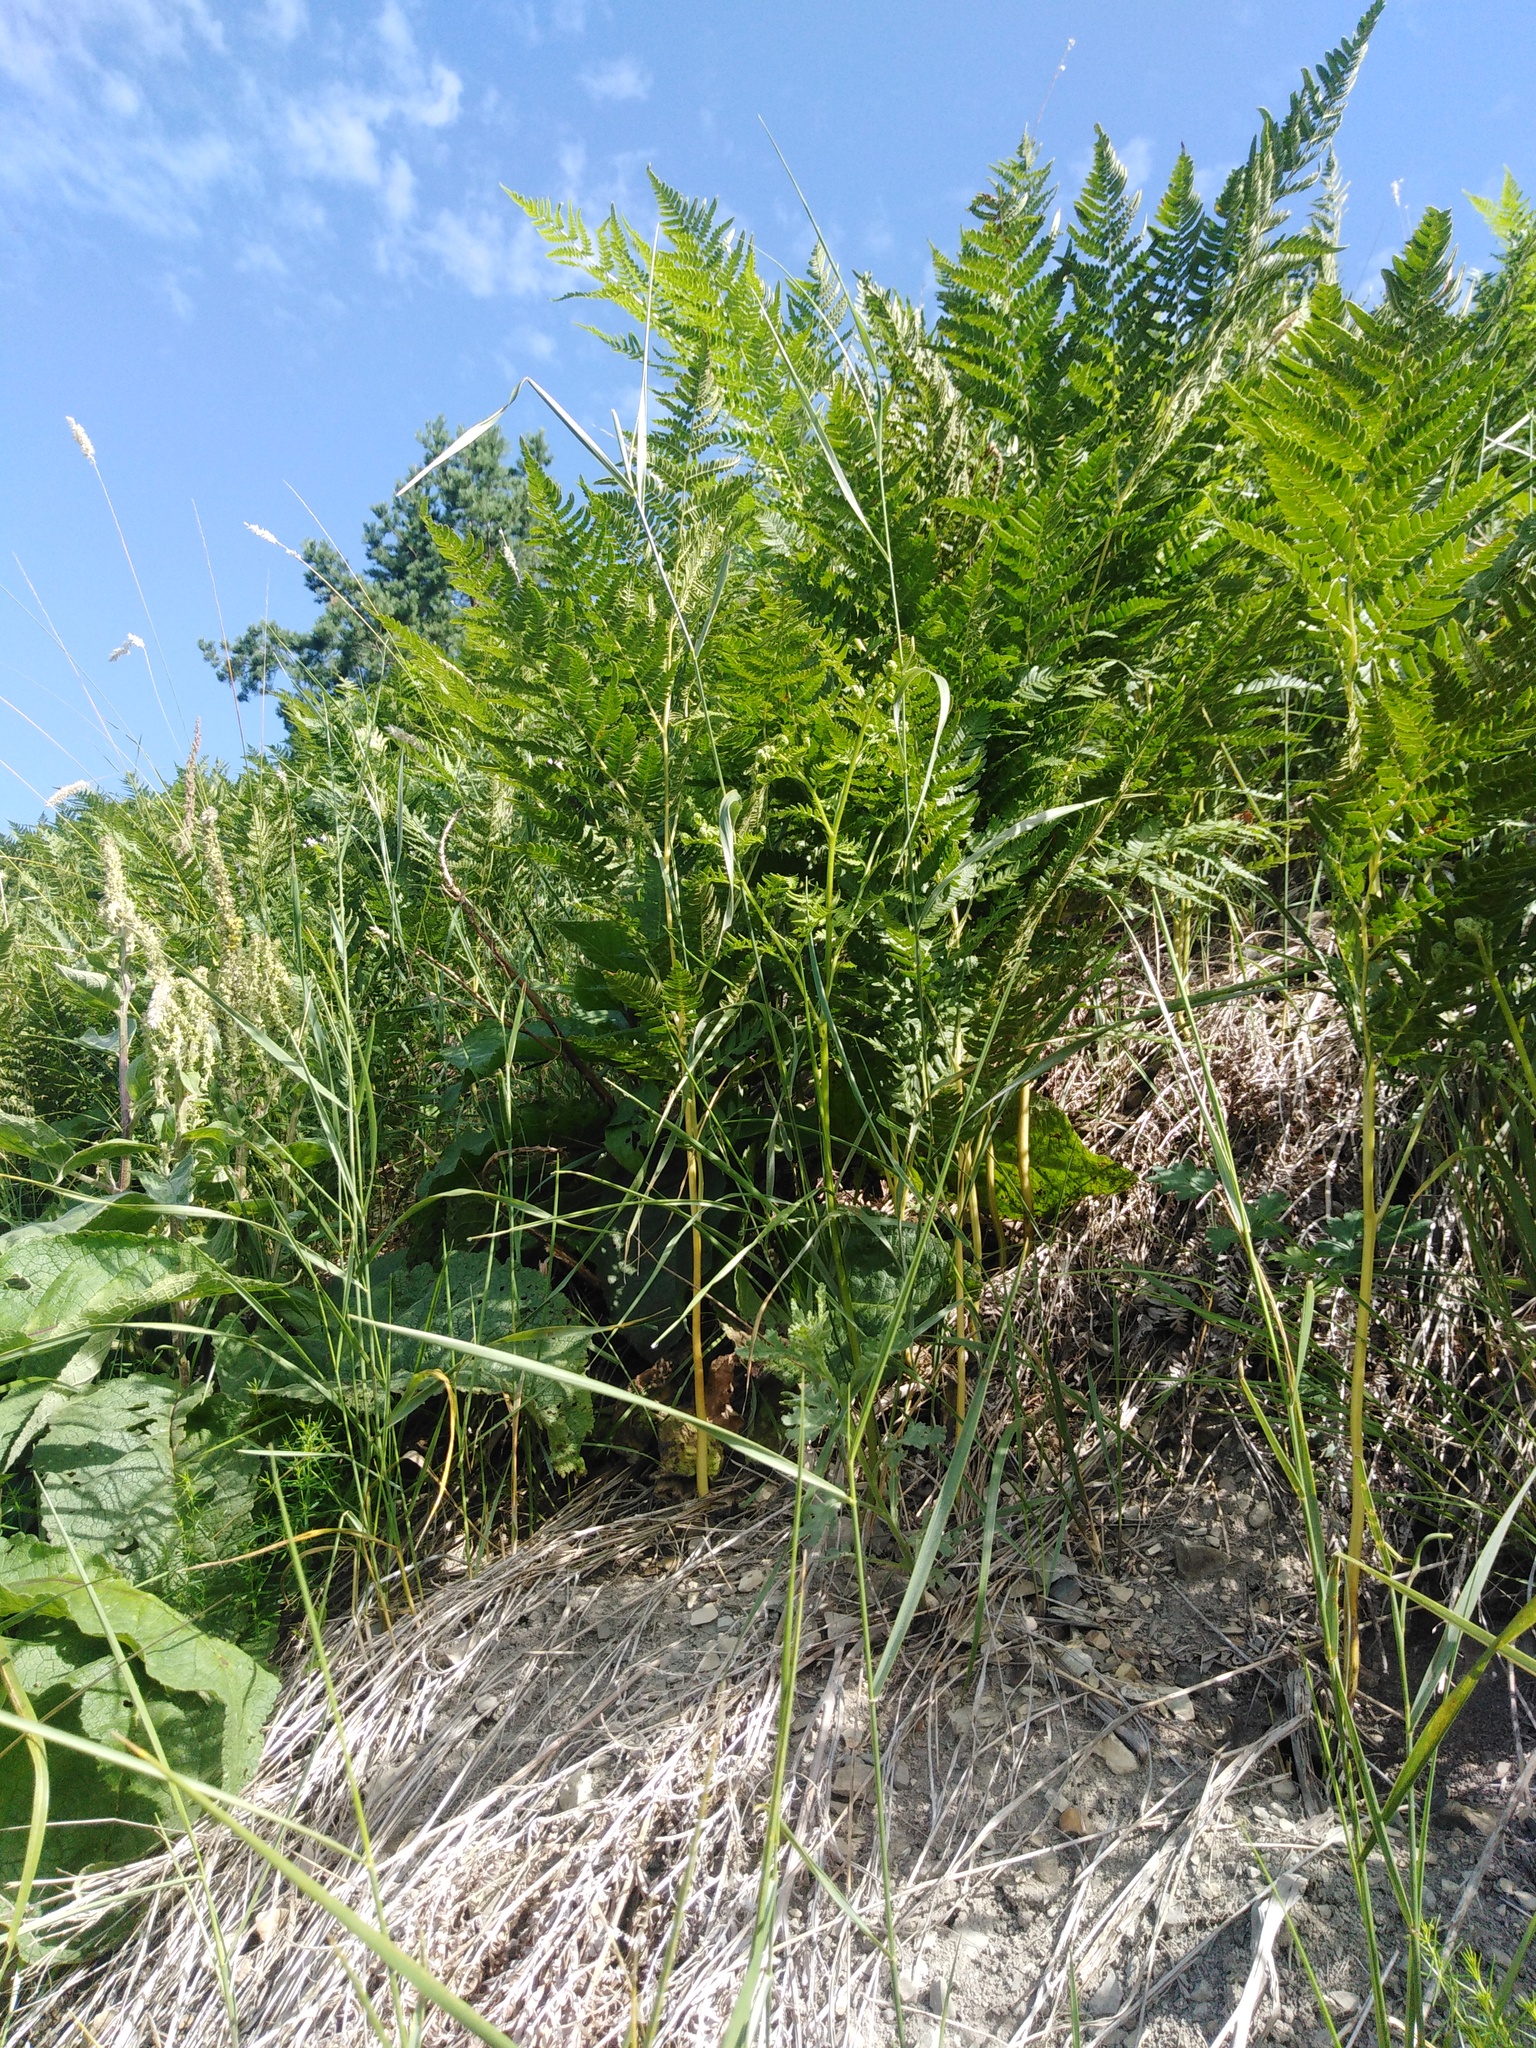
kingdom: Plantae
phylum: Tracheophyta
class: Polypodiopsida
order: Polypodiales
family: Dennstaedtiaceae
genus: Pteridium
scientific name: Pteridium aquilinum
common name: Bracken
